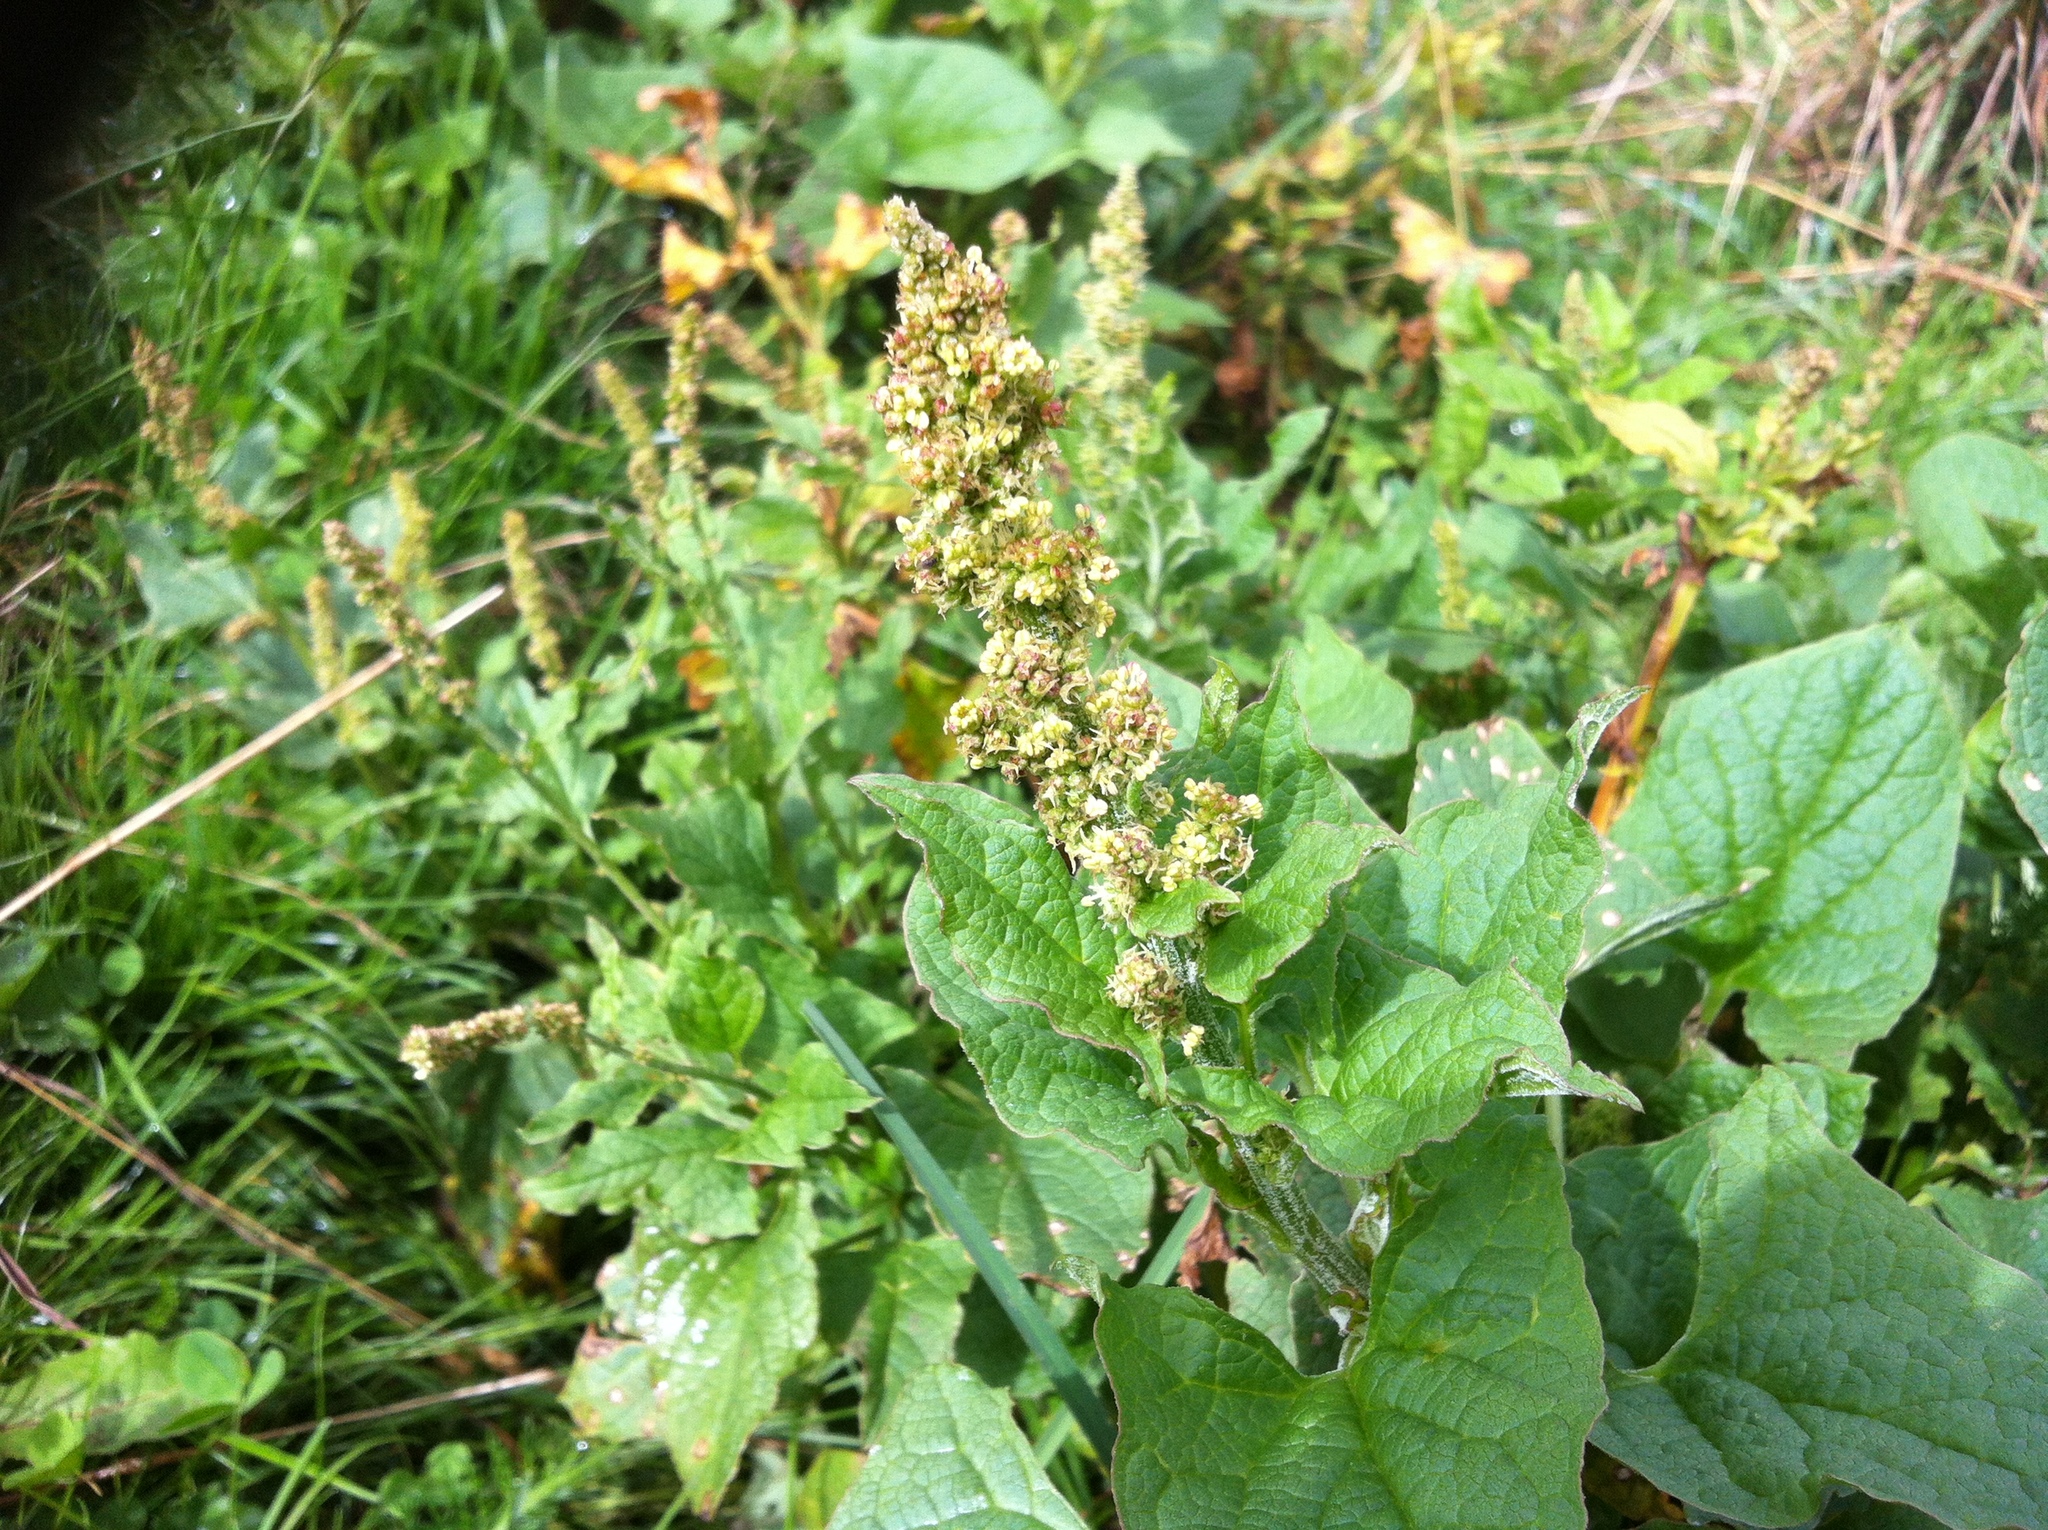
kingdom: Plantae
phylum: Tracheophyta
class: Magnoliopsida
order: Caryophyllales
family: Amaranthaceae
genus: Blitum
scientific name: Blitum bonus-henricus
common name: Good king henry
